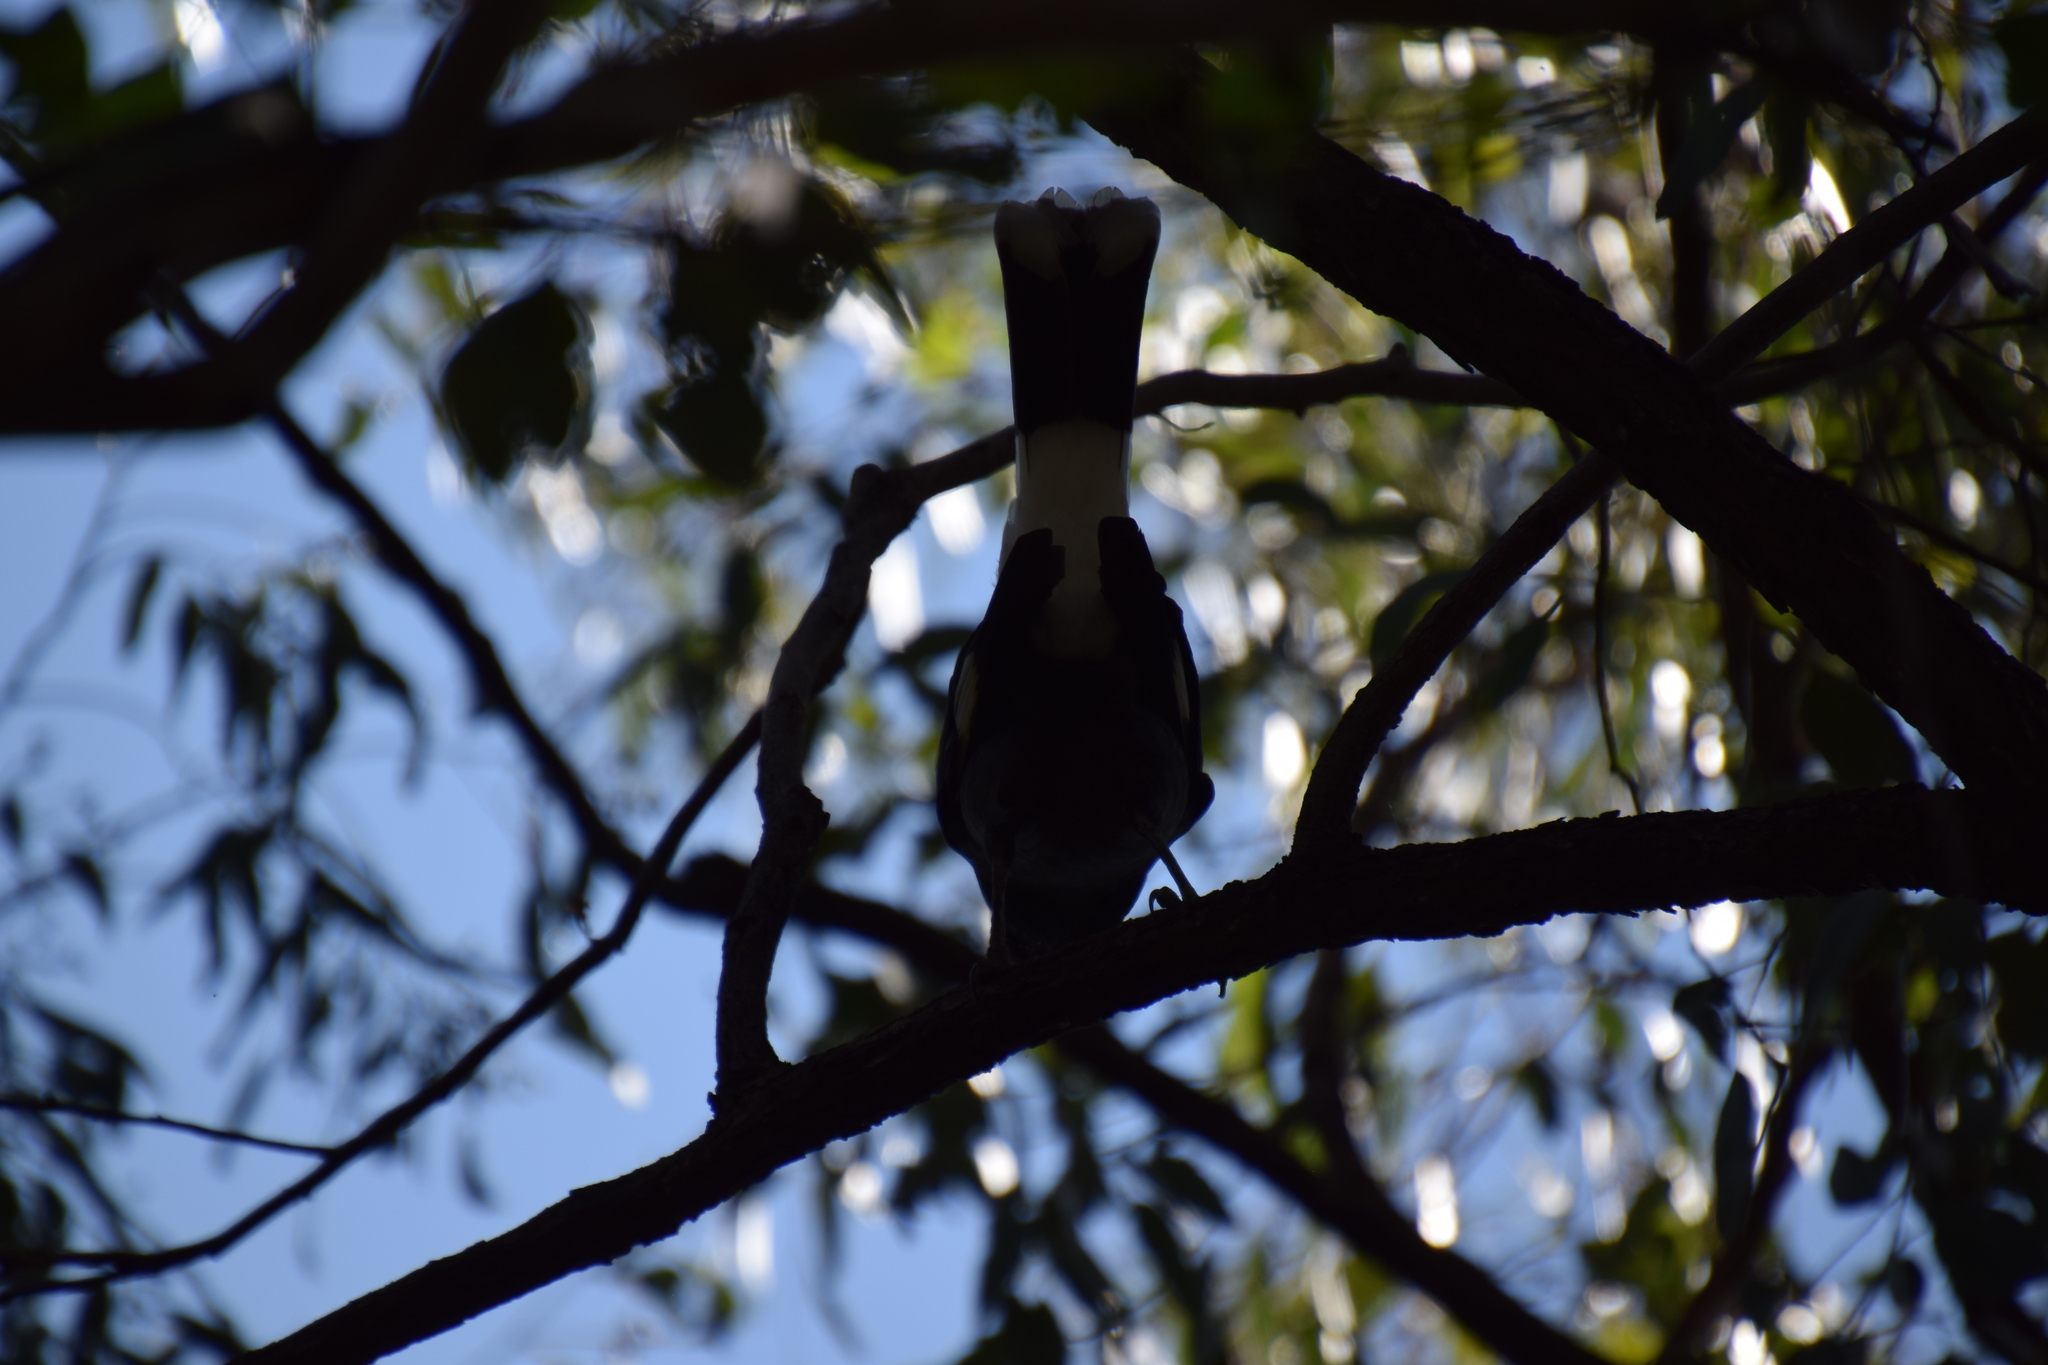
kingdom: Animalia
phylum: Chordata
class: Aves
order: Passeriformes
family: Cracticidae
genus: Strepera
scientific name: Strepera graculina
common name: Pied currawong
